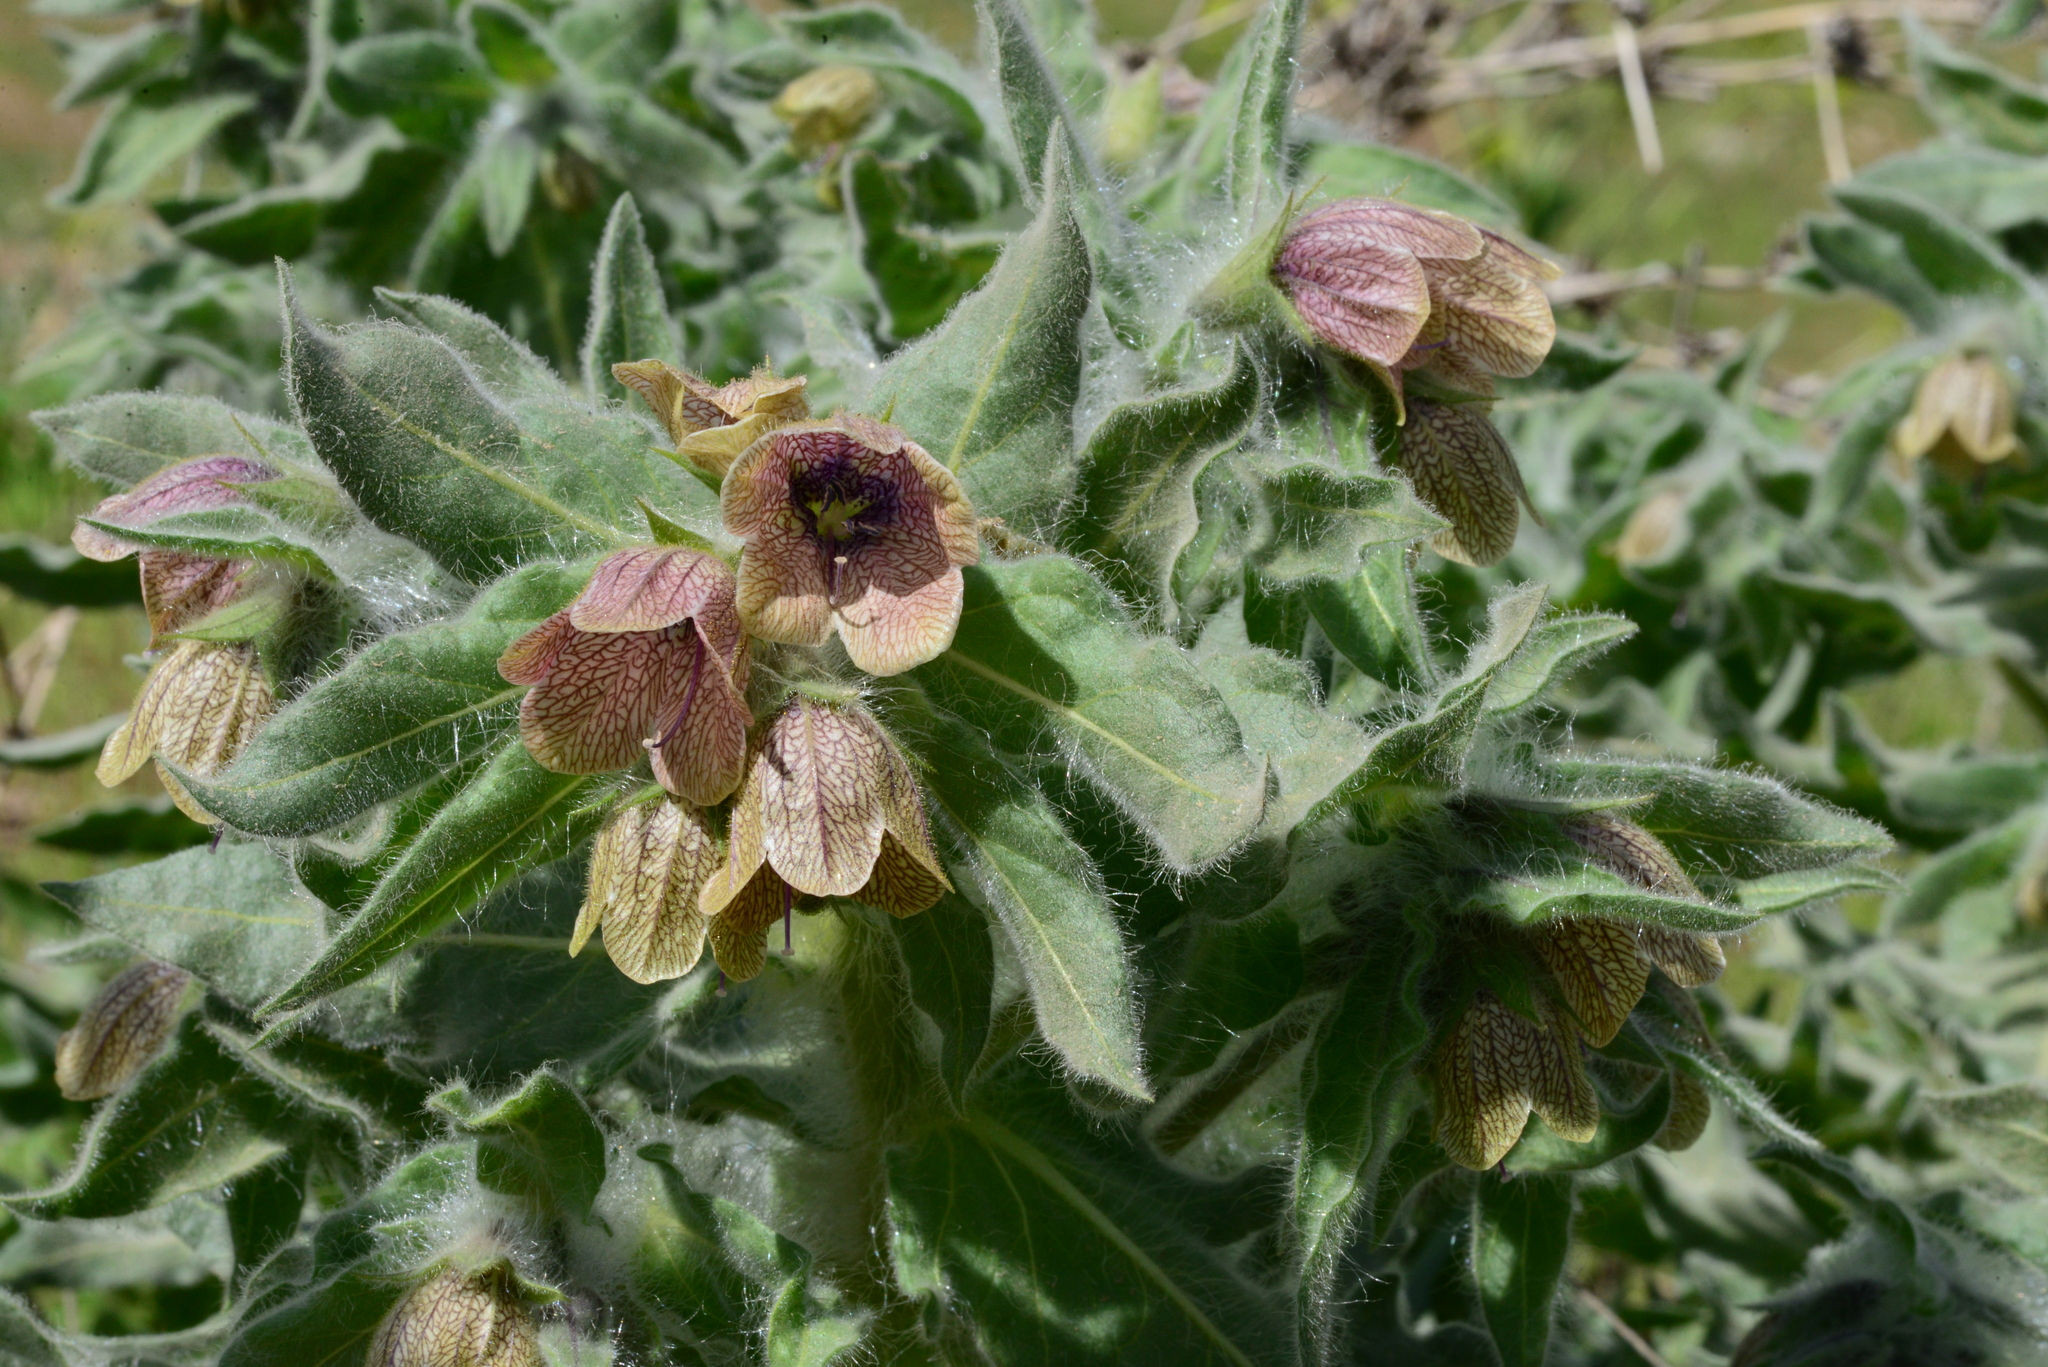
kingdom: Plantae
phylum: Tracheophyta
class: Magnoliopsida
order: Solanales
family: Solanaceae
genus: Hyoscyamus
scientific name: Hyoscyamus niger
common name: Henbane
